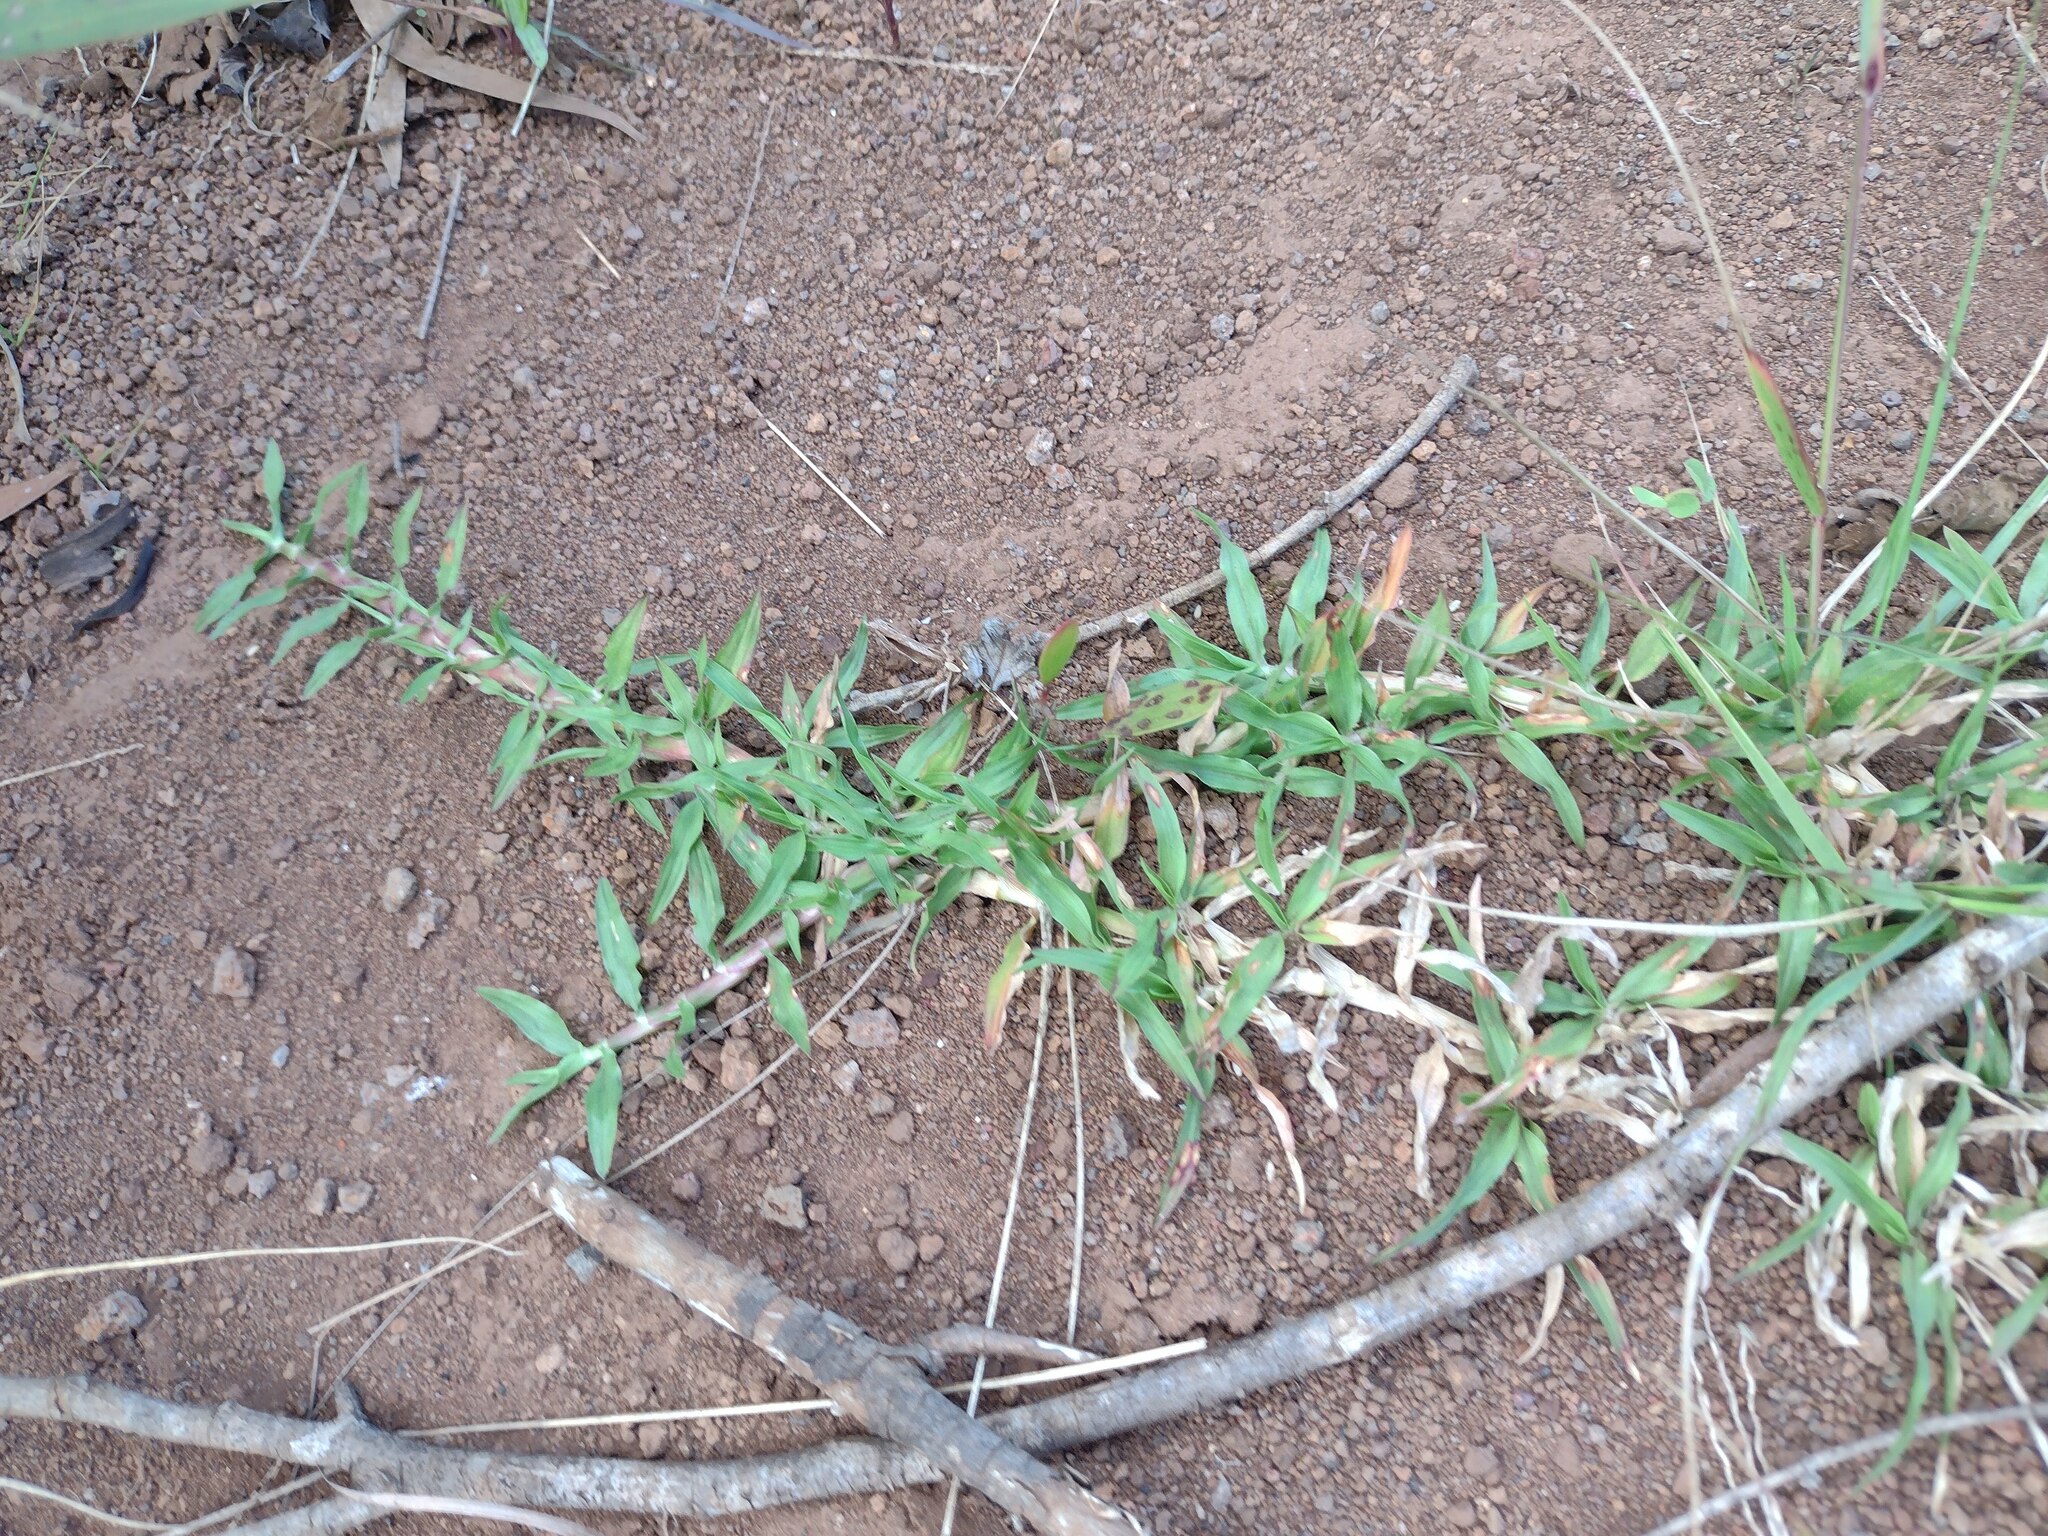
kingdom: Plantae
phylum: Tracheophyta
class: Liliopsida
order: Poales
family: Poaceae
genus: Chrysopogon
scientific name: Chrysopogon aciculatus
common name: Pilipiliula
